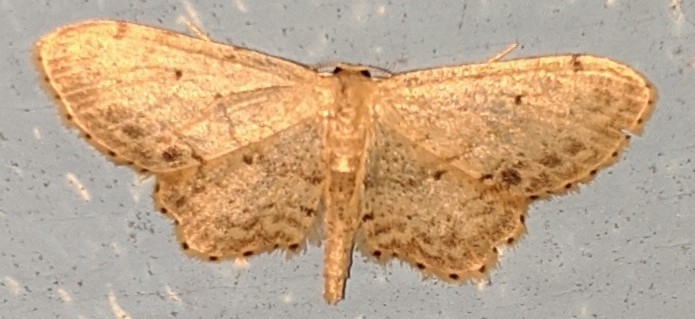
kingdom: Animalia
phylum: Arthropoda
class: Insecta
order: Lepidoptera
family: Geometridae
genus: Idaea
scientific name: Idaea dimidiata
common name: Single-dotted wave
